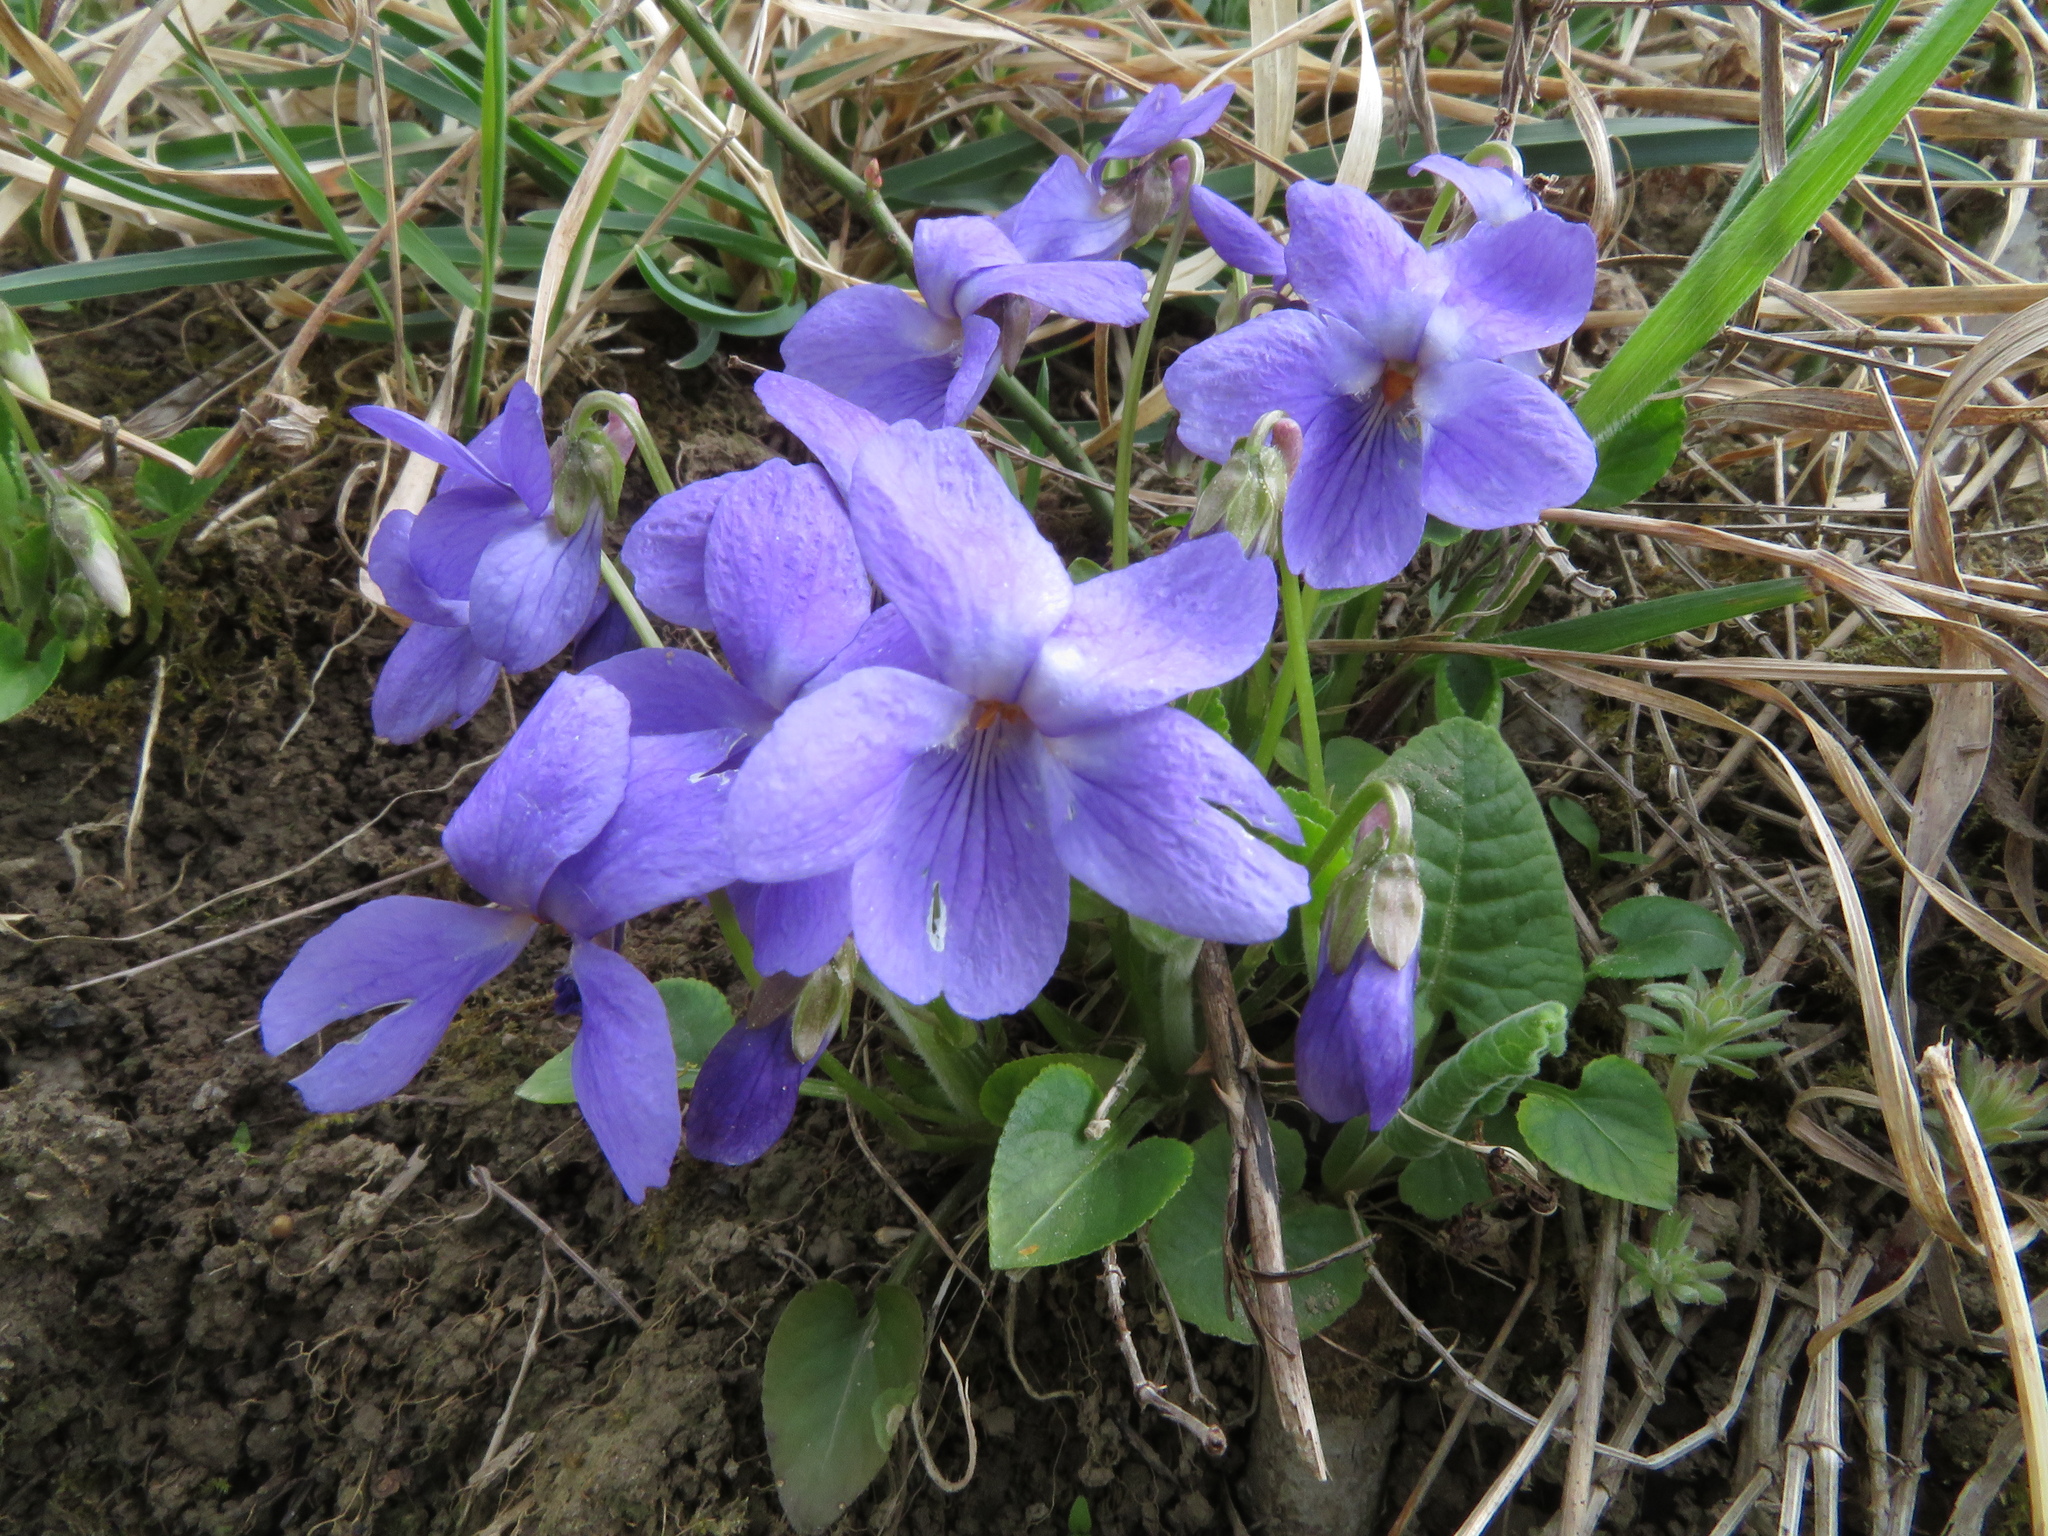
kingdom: Plantae
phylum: Tracheophyta
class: Magnoliopsida
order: Malpighiales
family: Violaceae
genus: Viola
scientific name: Viola ambigua
